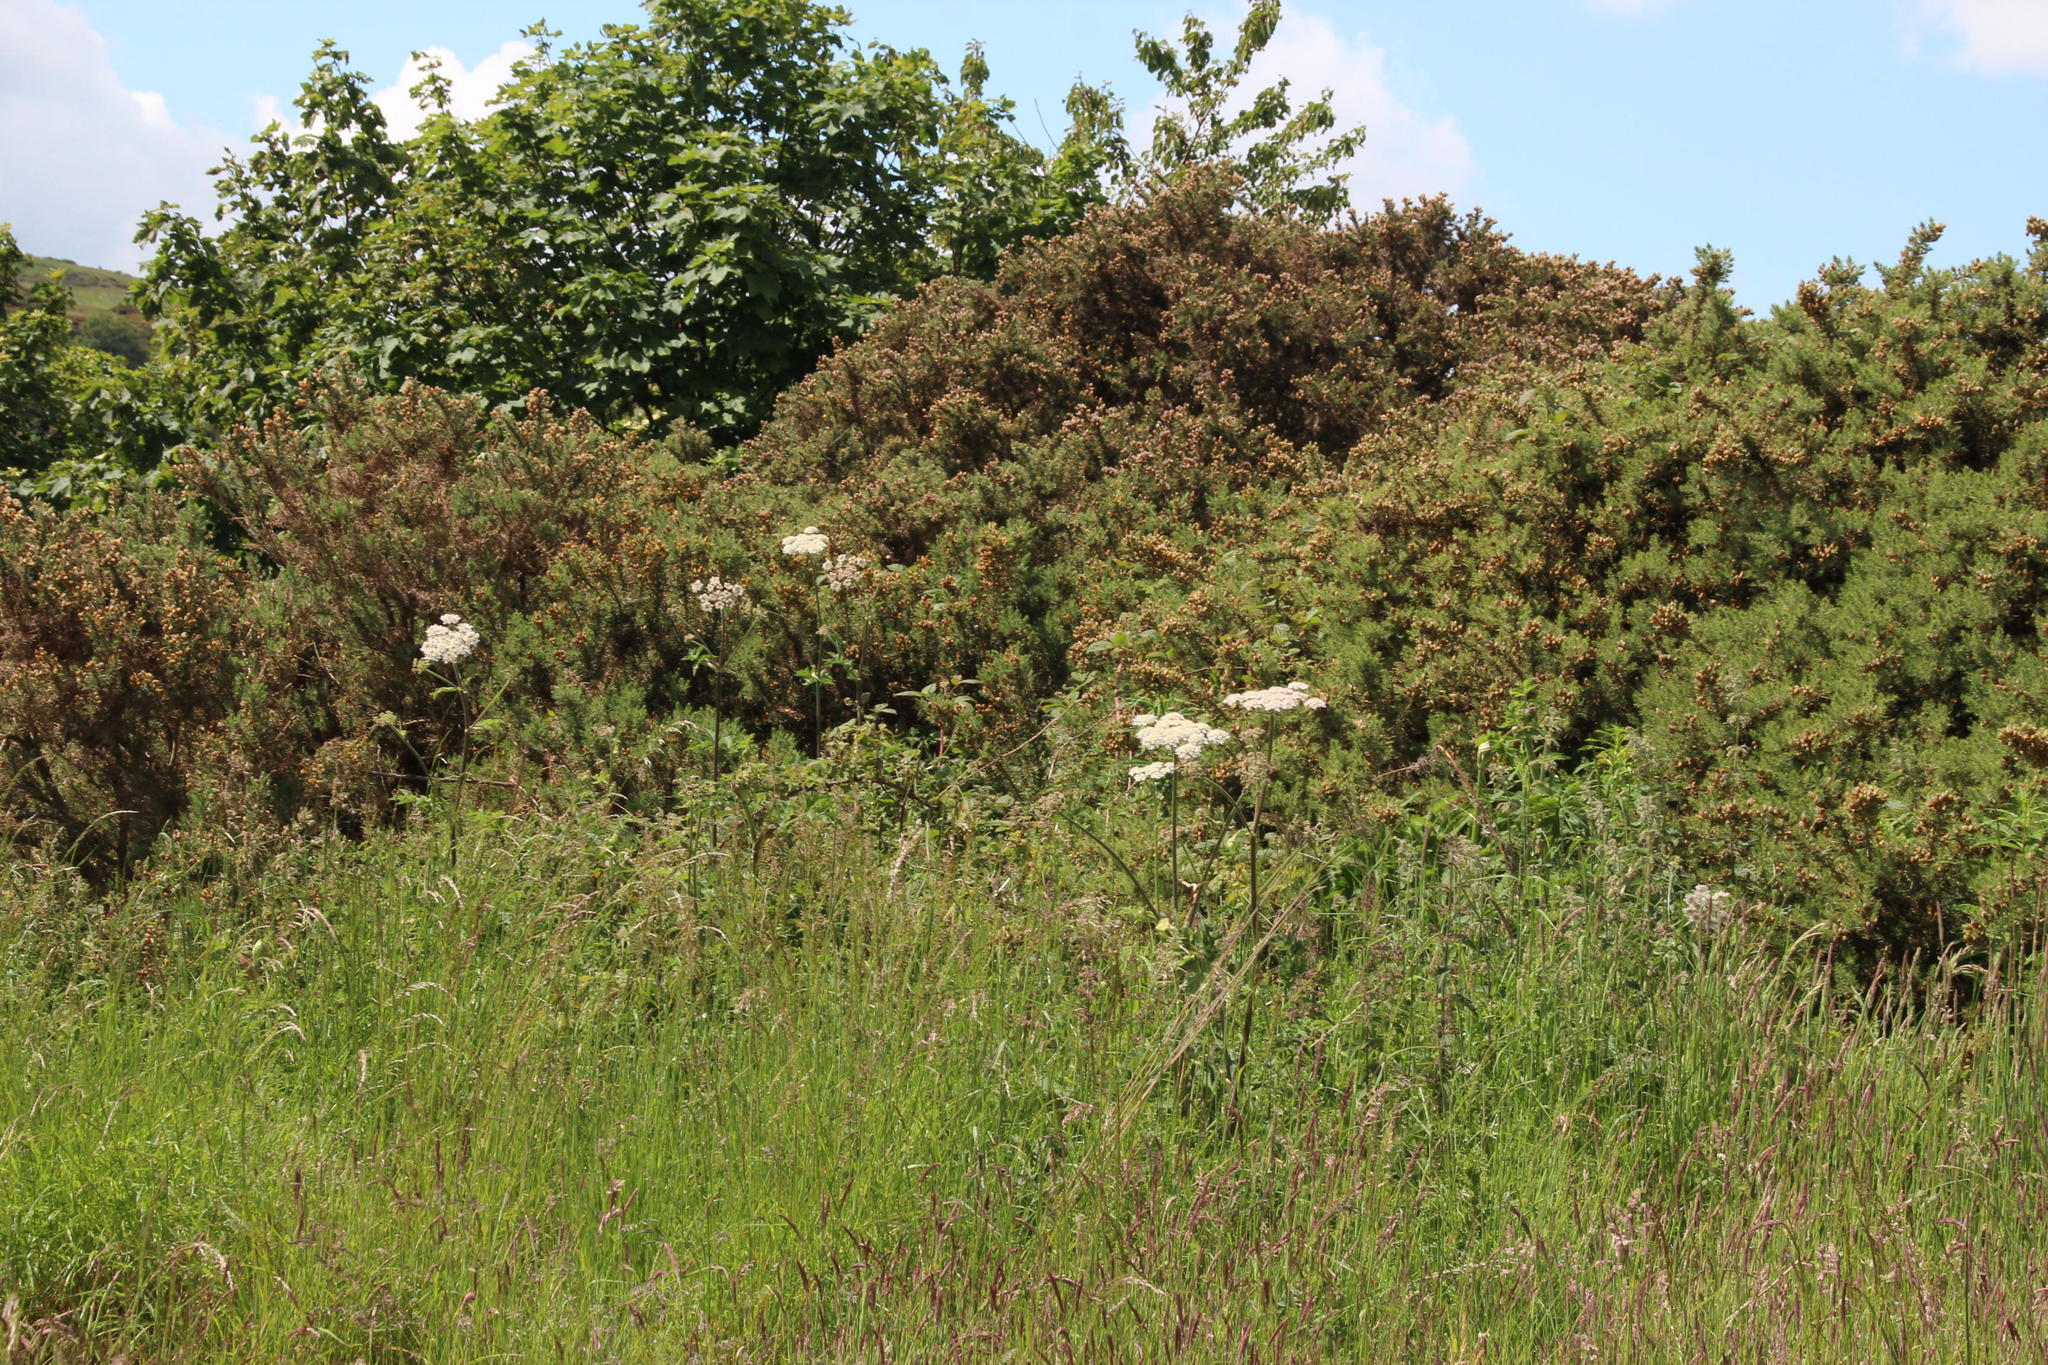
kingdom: Plantae
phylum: Tracheophyta
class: Magnoliopsida
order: Apiales
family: Apiaceae
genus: Heracleum
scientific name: Heracleum sphondylium
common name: Hogweed
